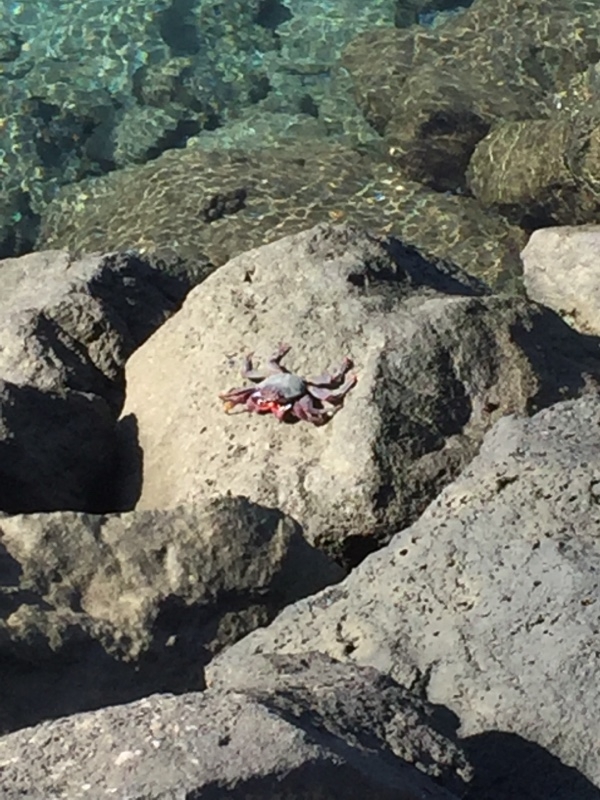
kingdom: Animalia
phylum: Arthropoda
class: Malacostraca
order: Decapoda
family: Grapsidae
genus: Grapsus
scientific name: Grapsus adscensionis
